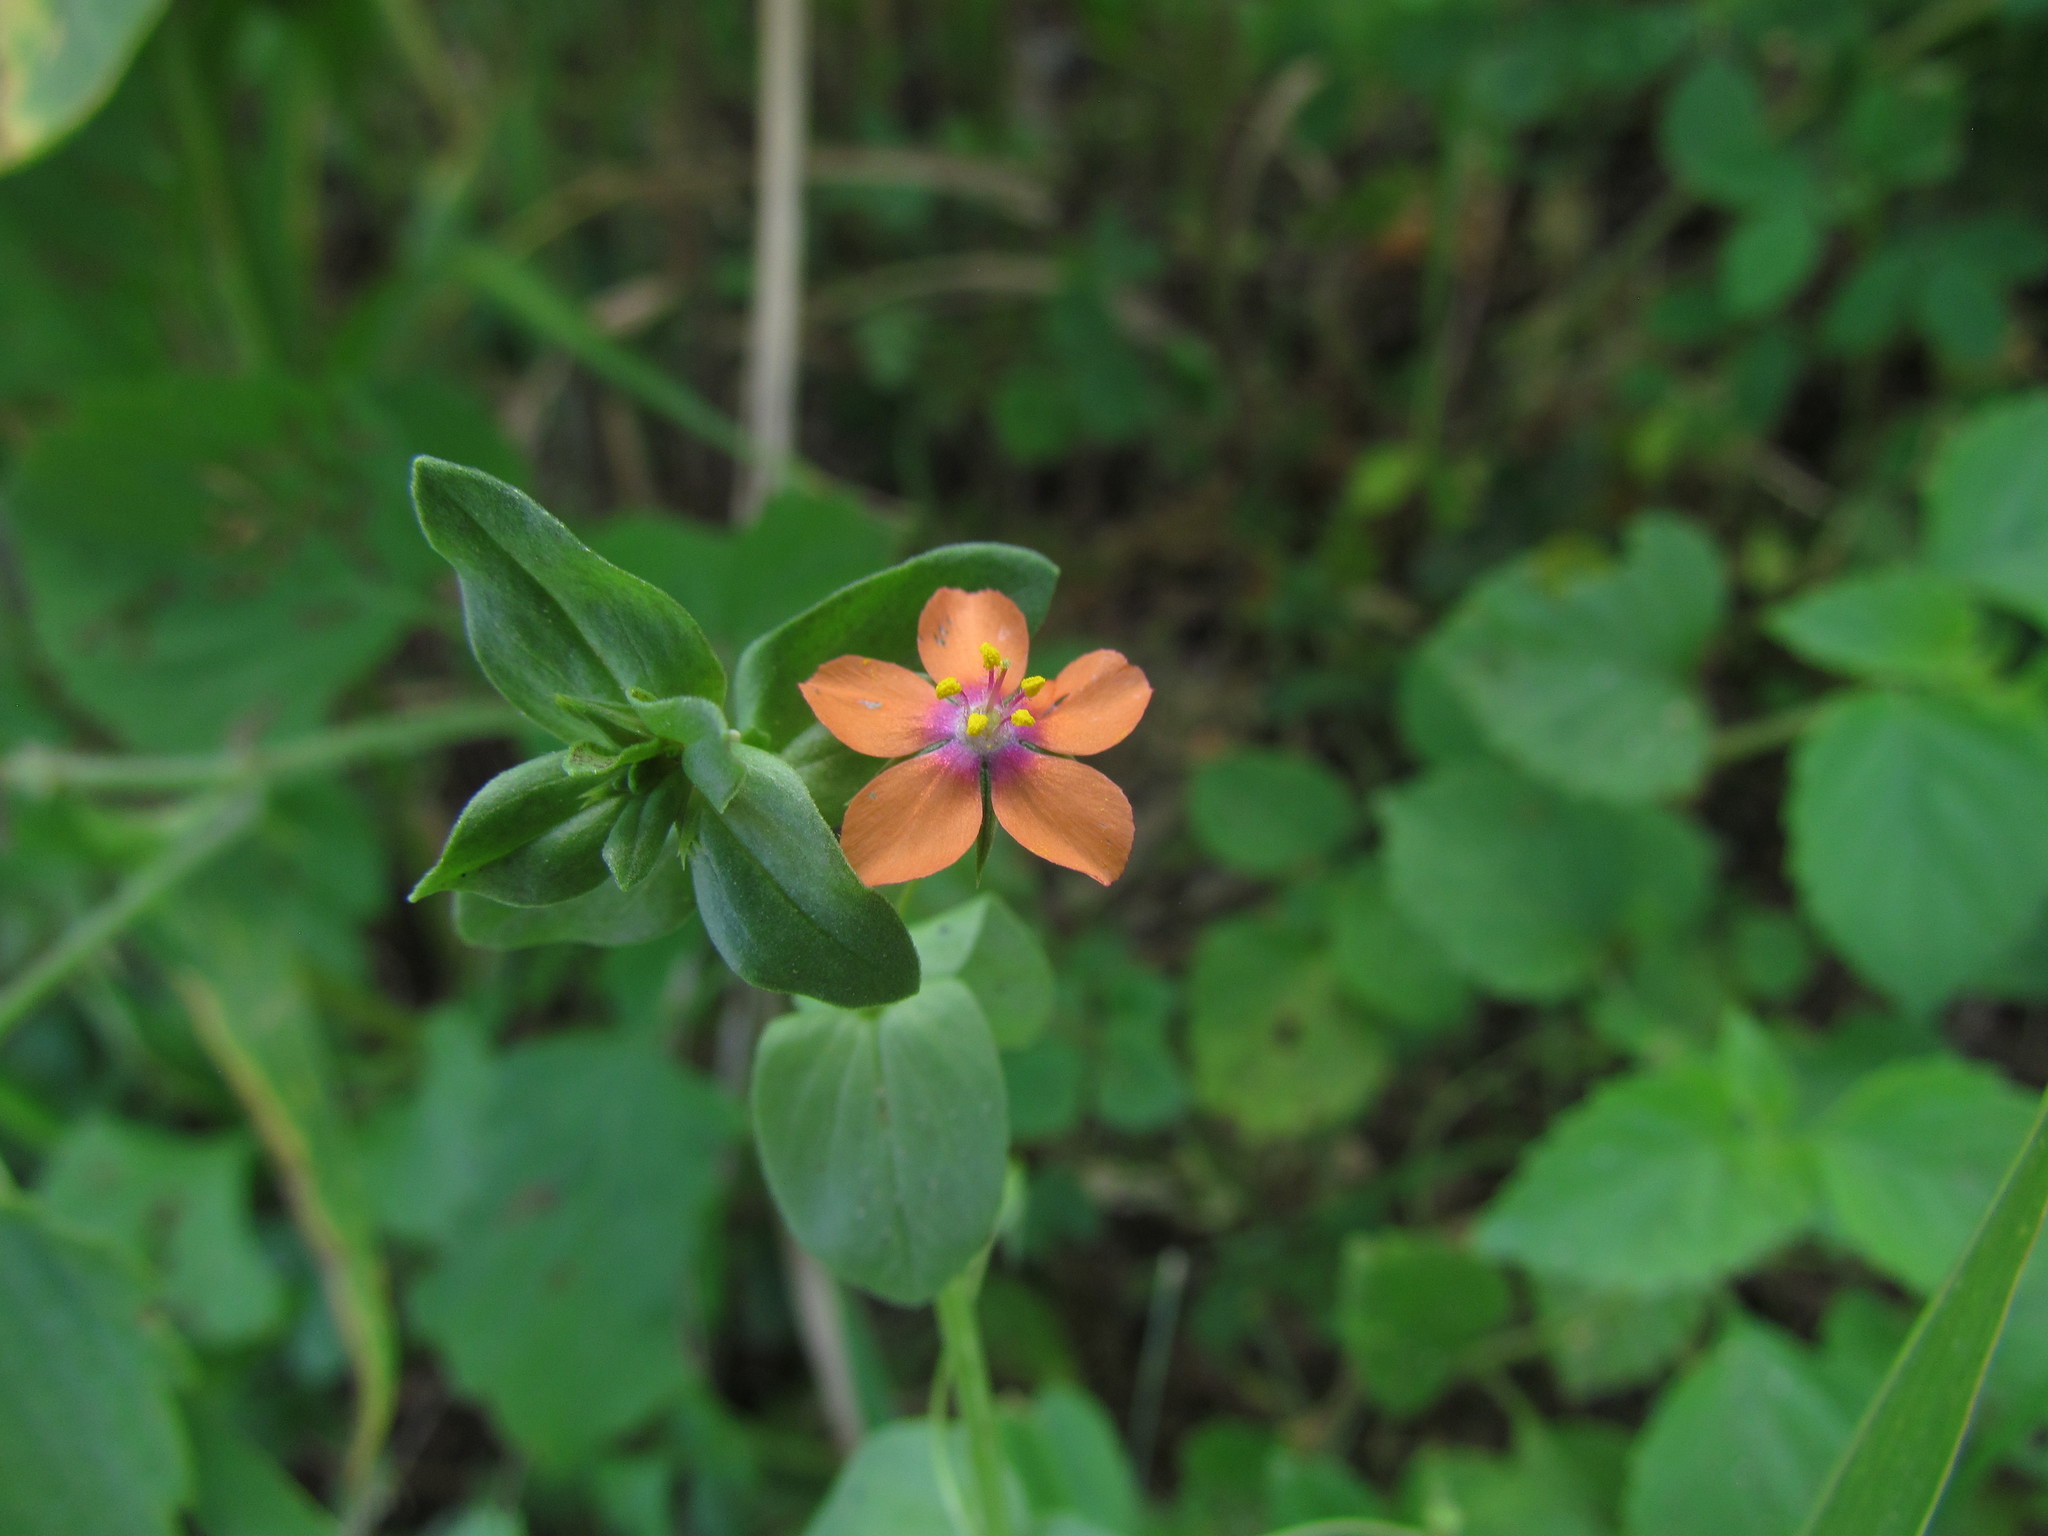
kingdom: Plantae
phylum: Tracheophyta
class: Magnoliopsida
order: Ericales
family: Primulaceae
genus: Lysimachia
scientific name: Lysimachia arvensis
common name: Scarlet pimpernel
